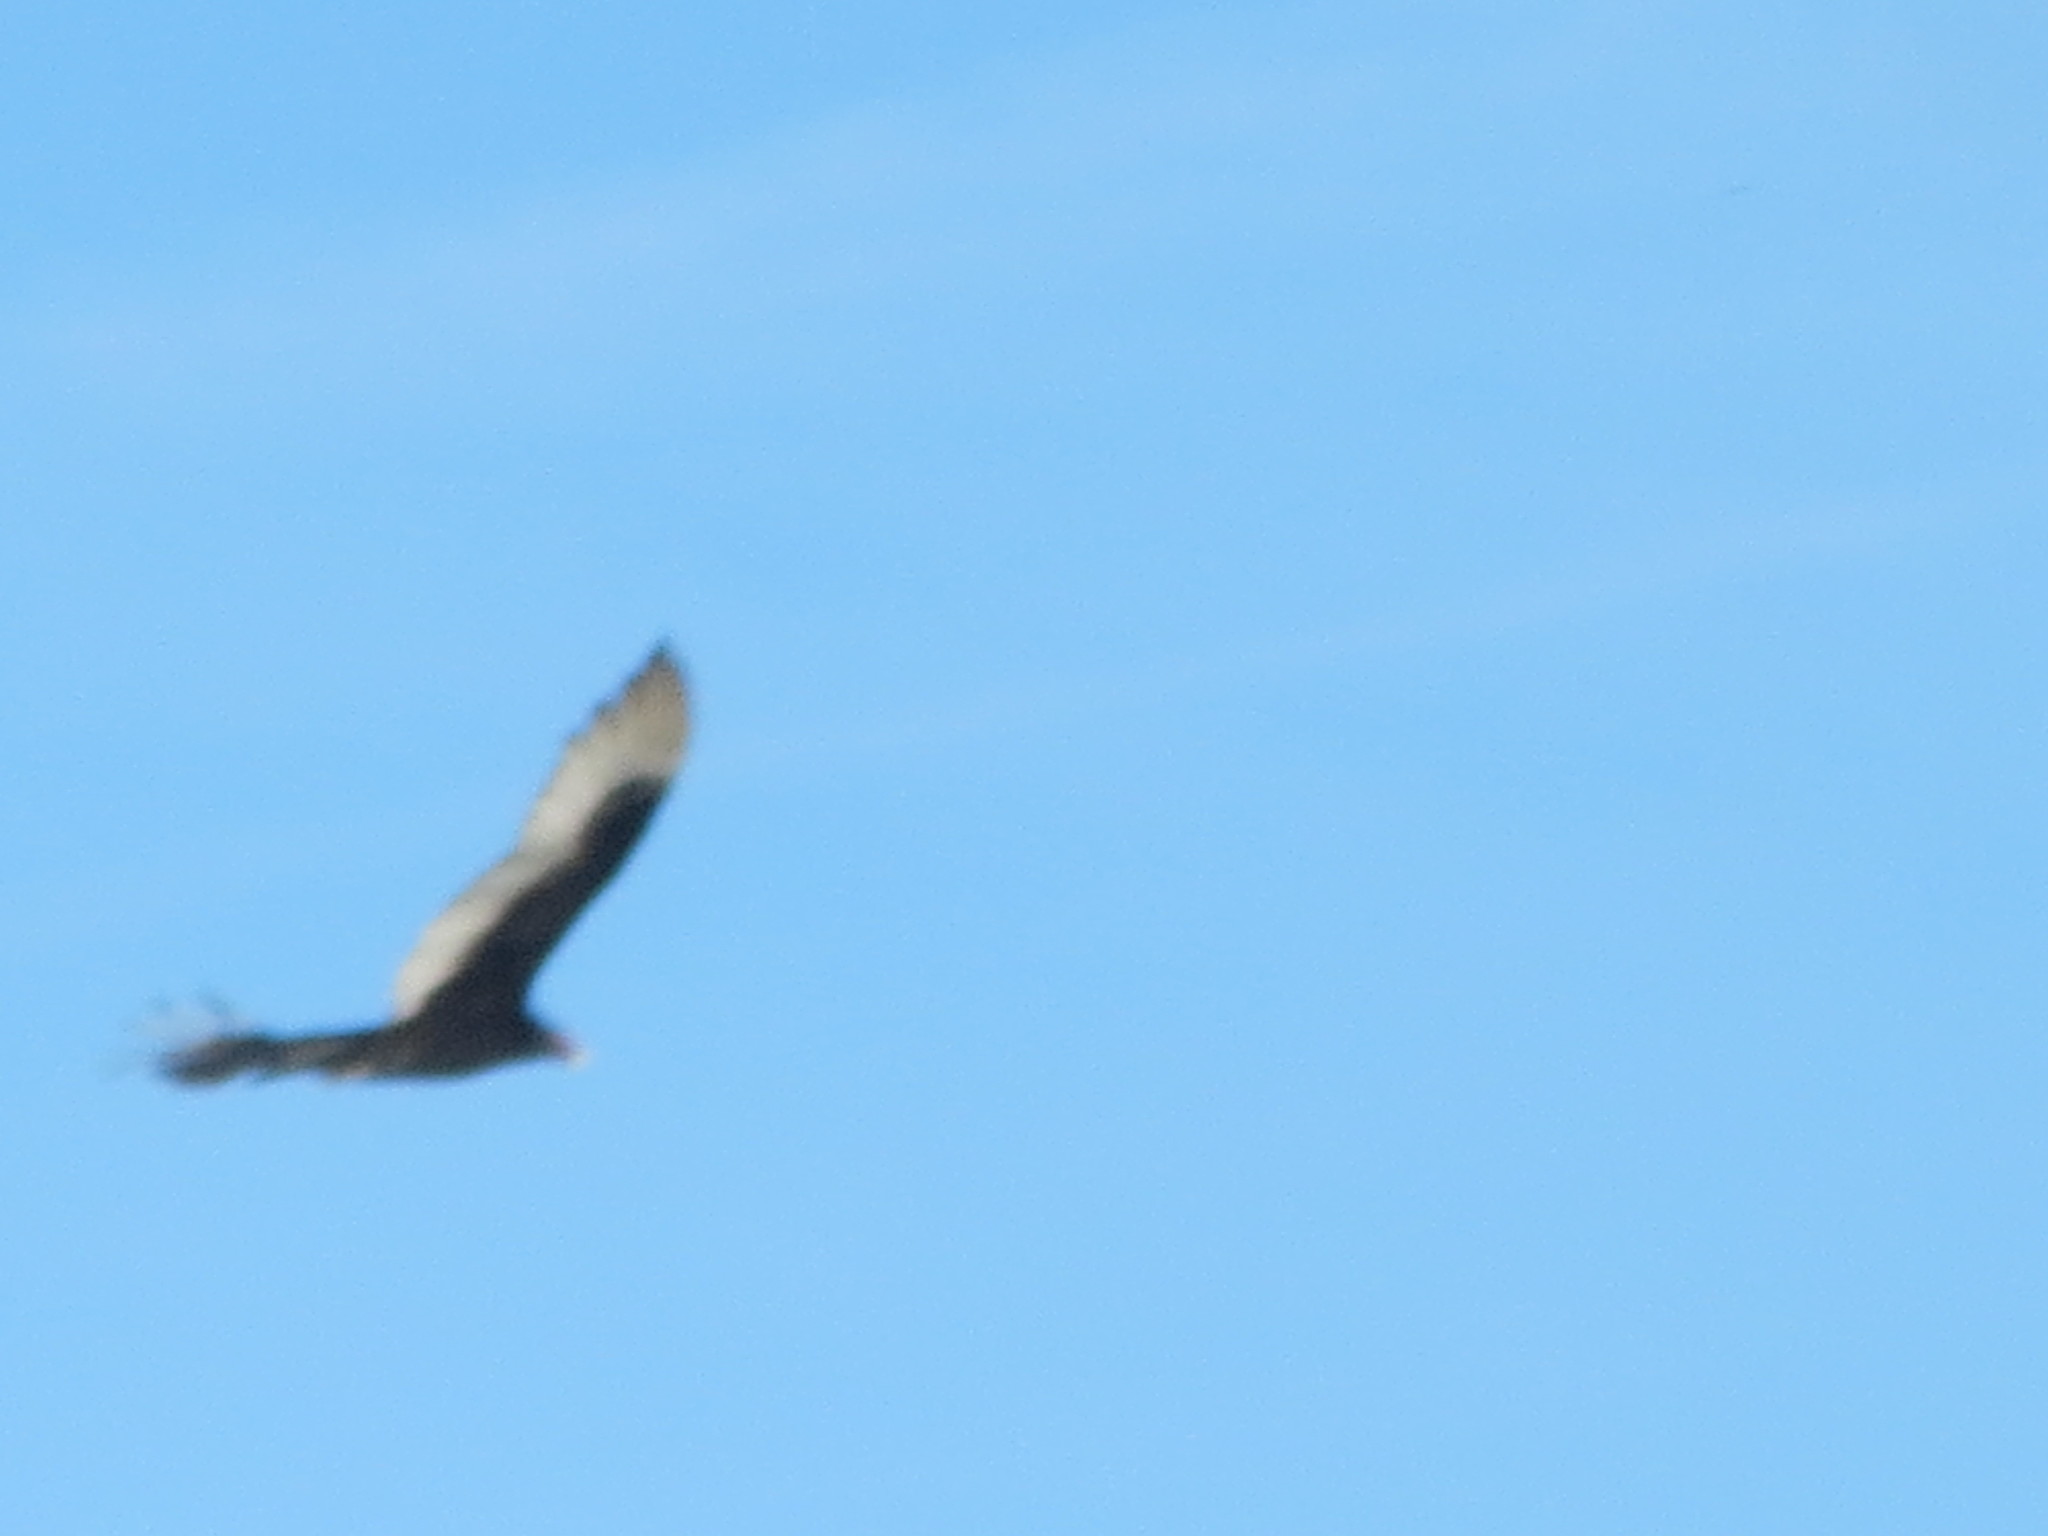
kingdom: Animalia
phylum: Chordata
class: Aves
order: Accipitriformes
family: Cathartidae
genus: Cathartes
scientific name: Cathartes aura
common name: Turkey vulture
